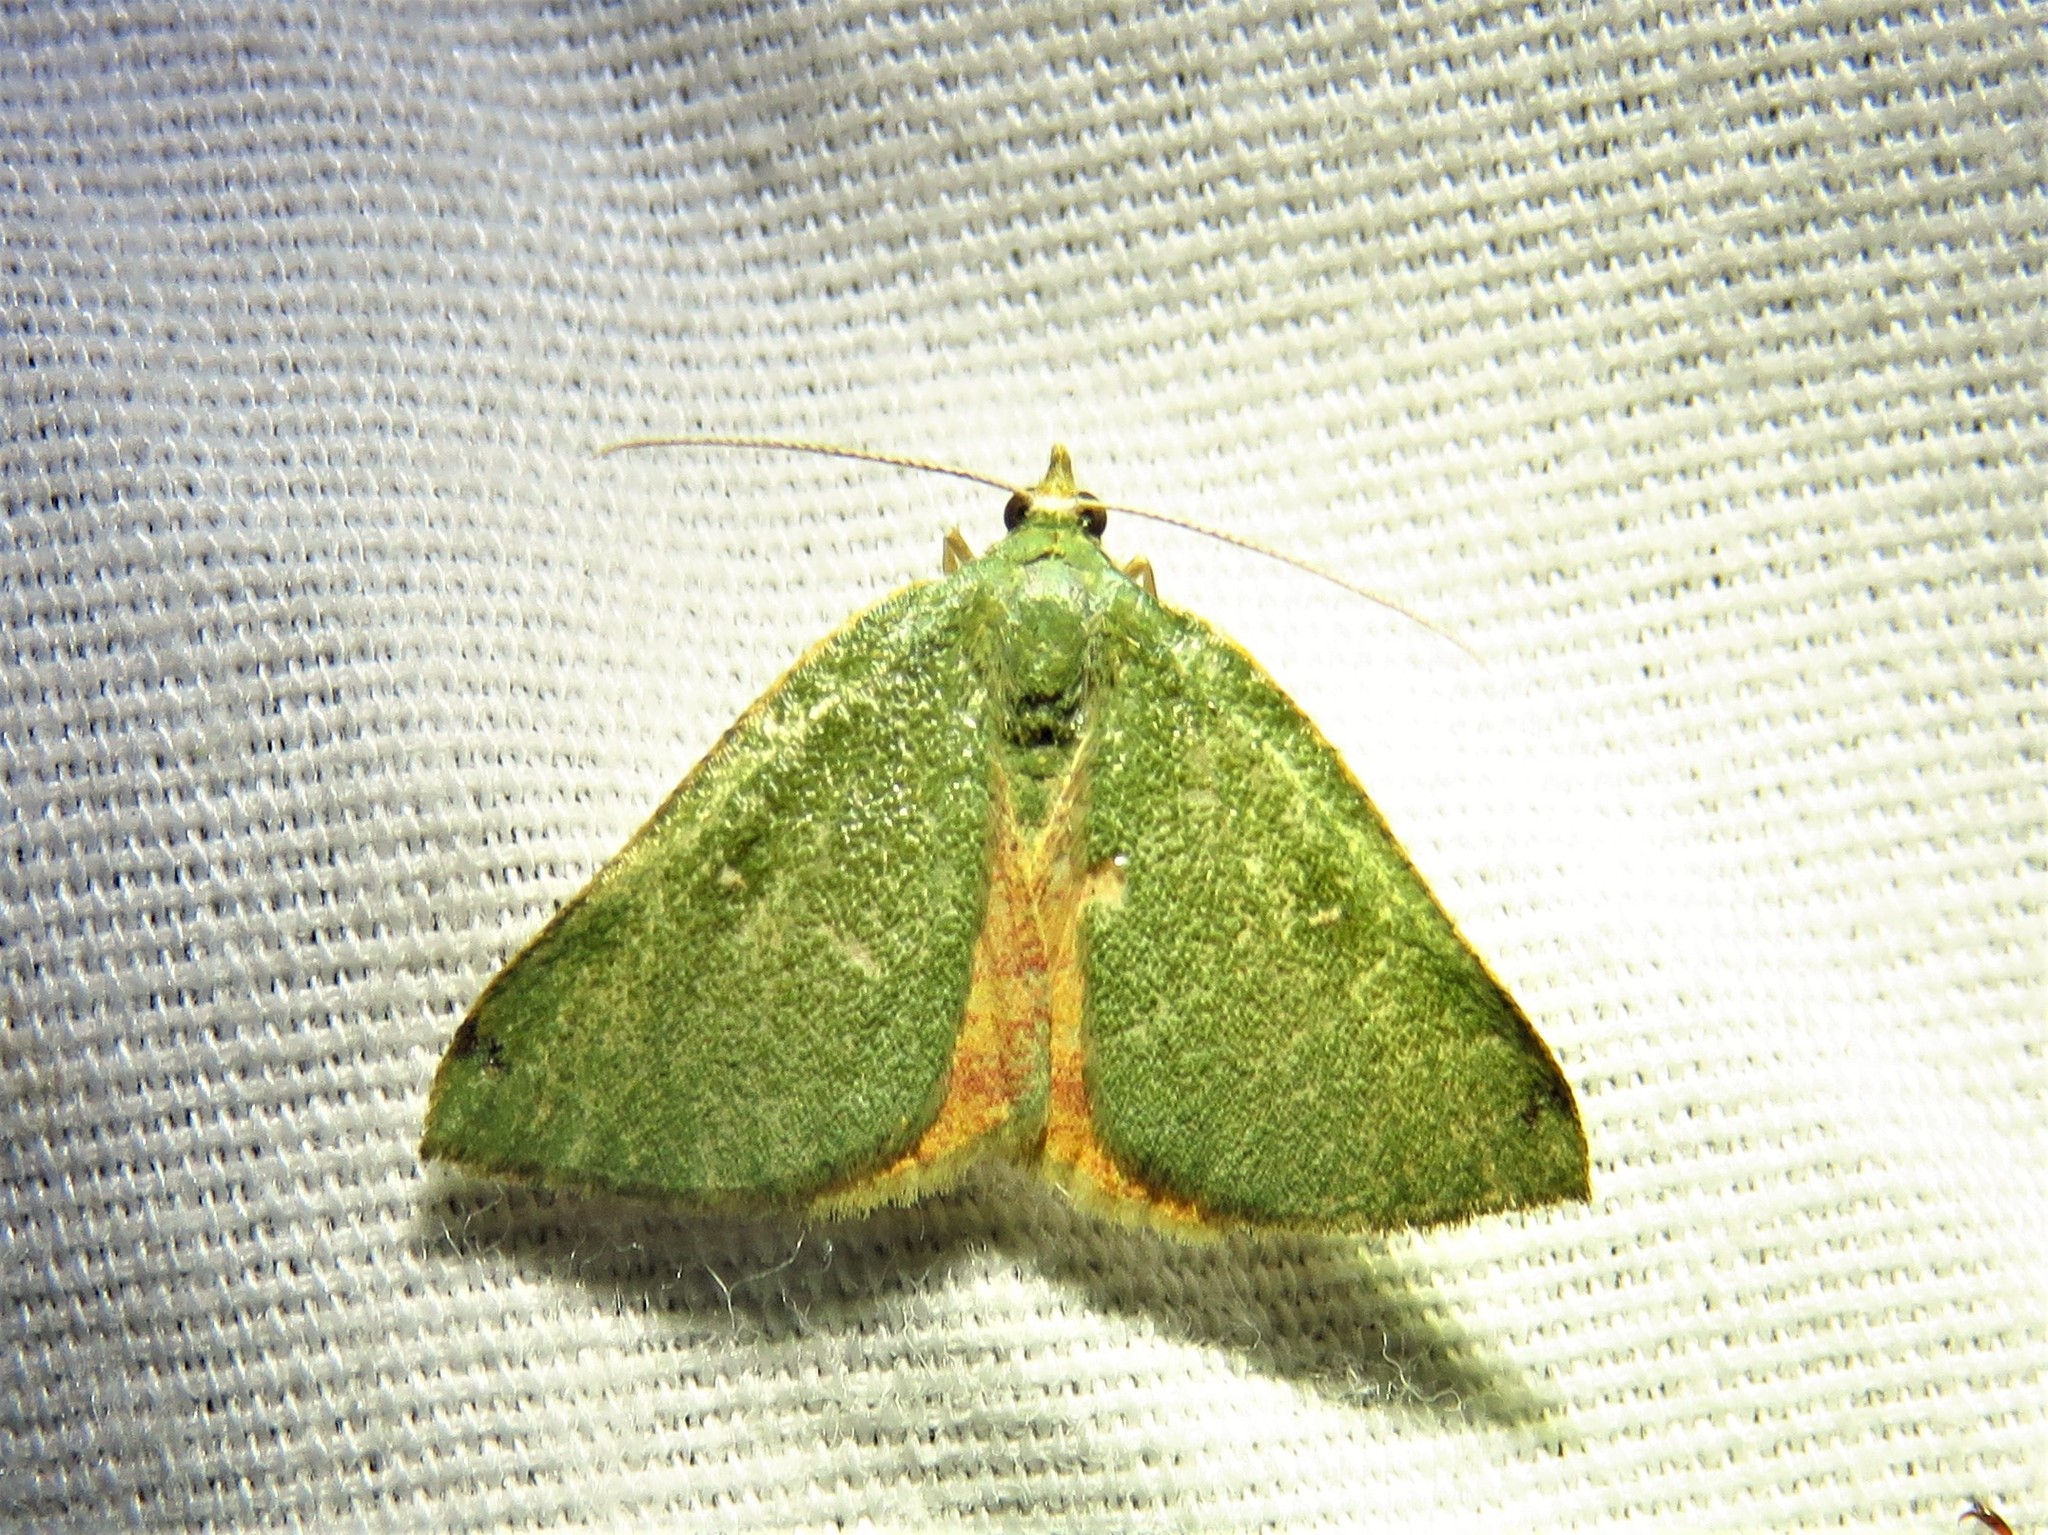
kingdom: Animalia
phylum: Arthropoda
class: Insecta
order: Lepidoptera
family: Geometridae
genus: Chloraspilates
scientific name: Chloraspilates bicoloraria
